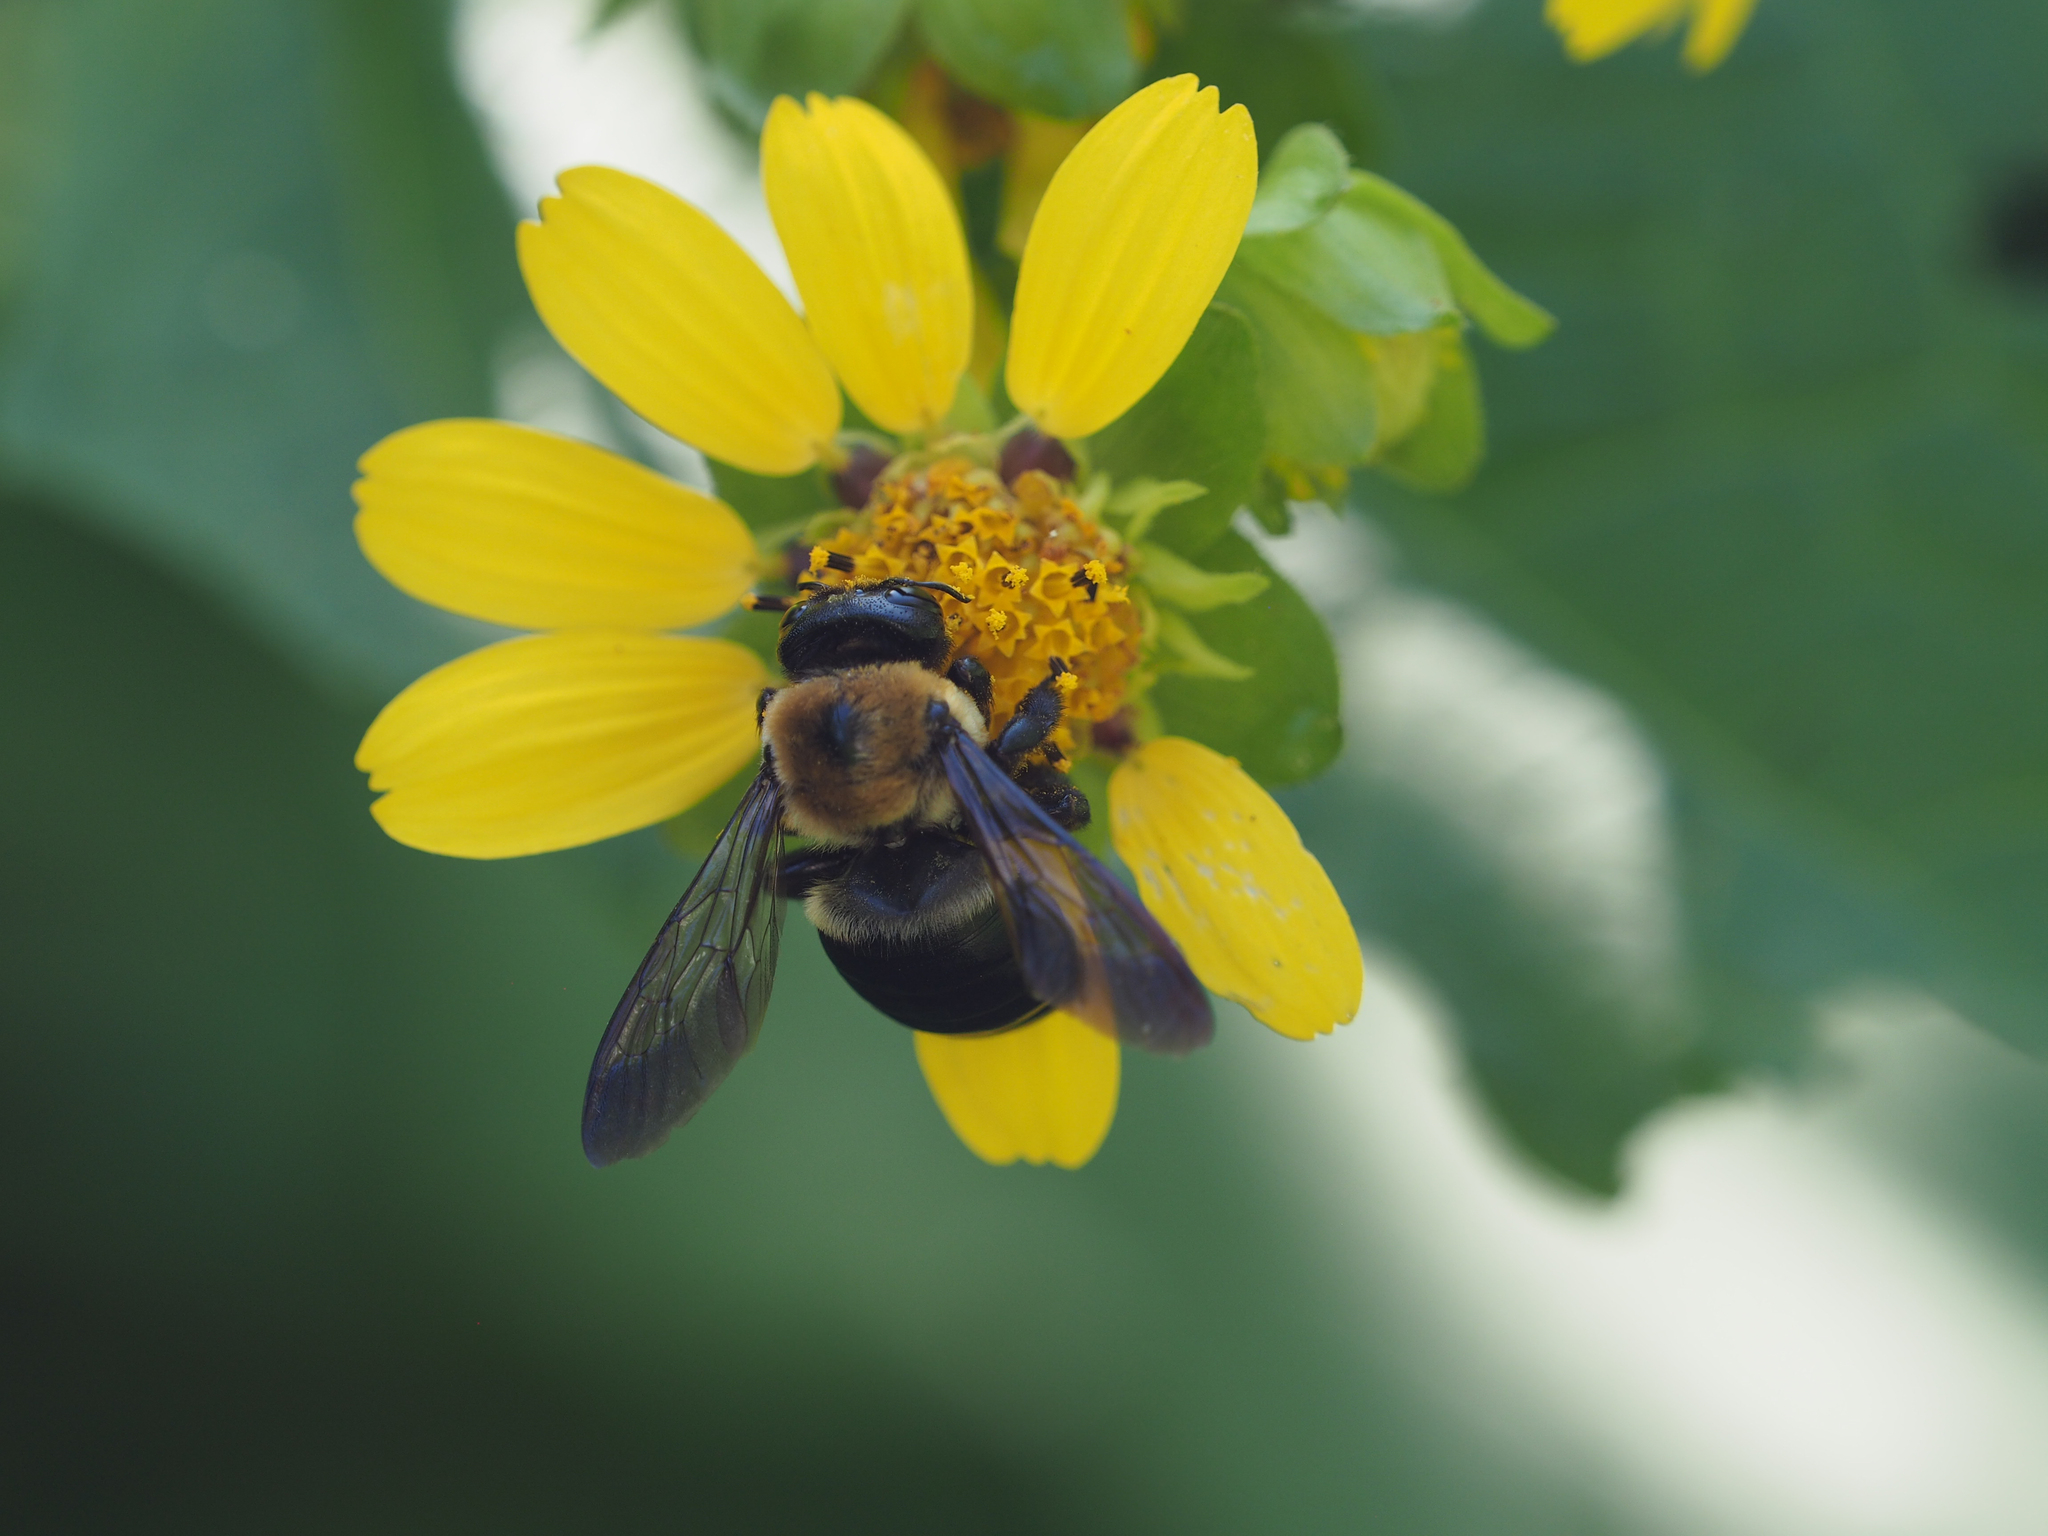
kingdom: Animalia
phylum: Arthropoda
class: Insecta
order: Hymenoptera
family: Apidae
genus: Xylocopa
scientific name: Xylocopa virginica
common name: Carpenter bee
